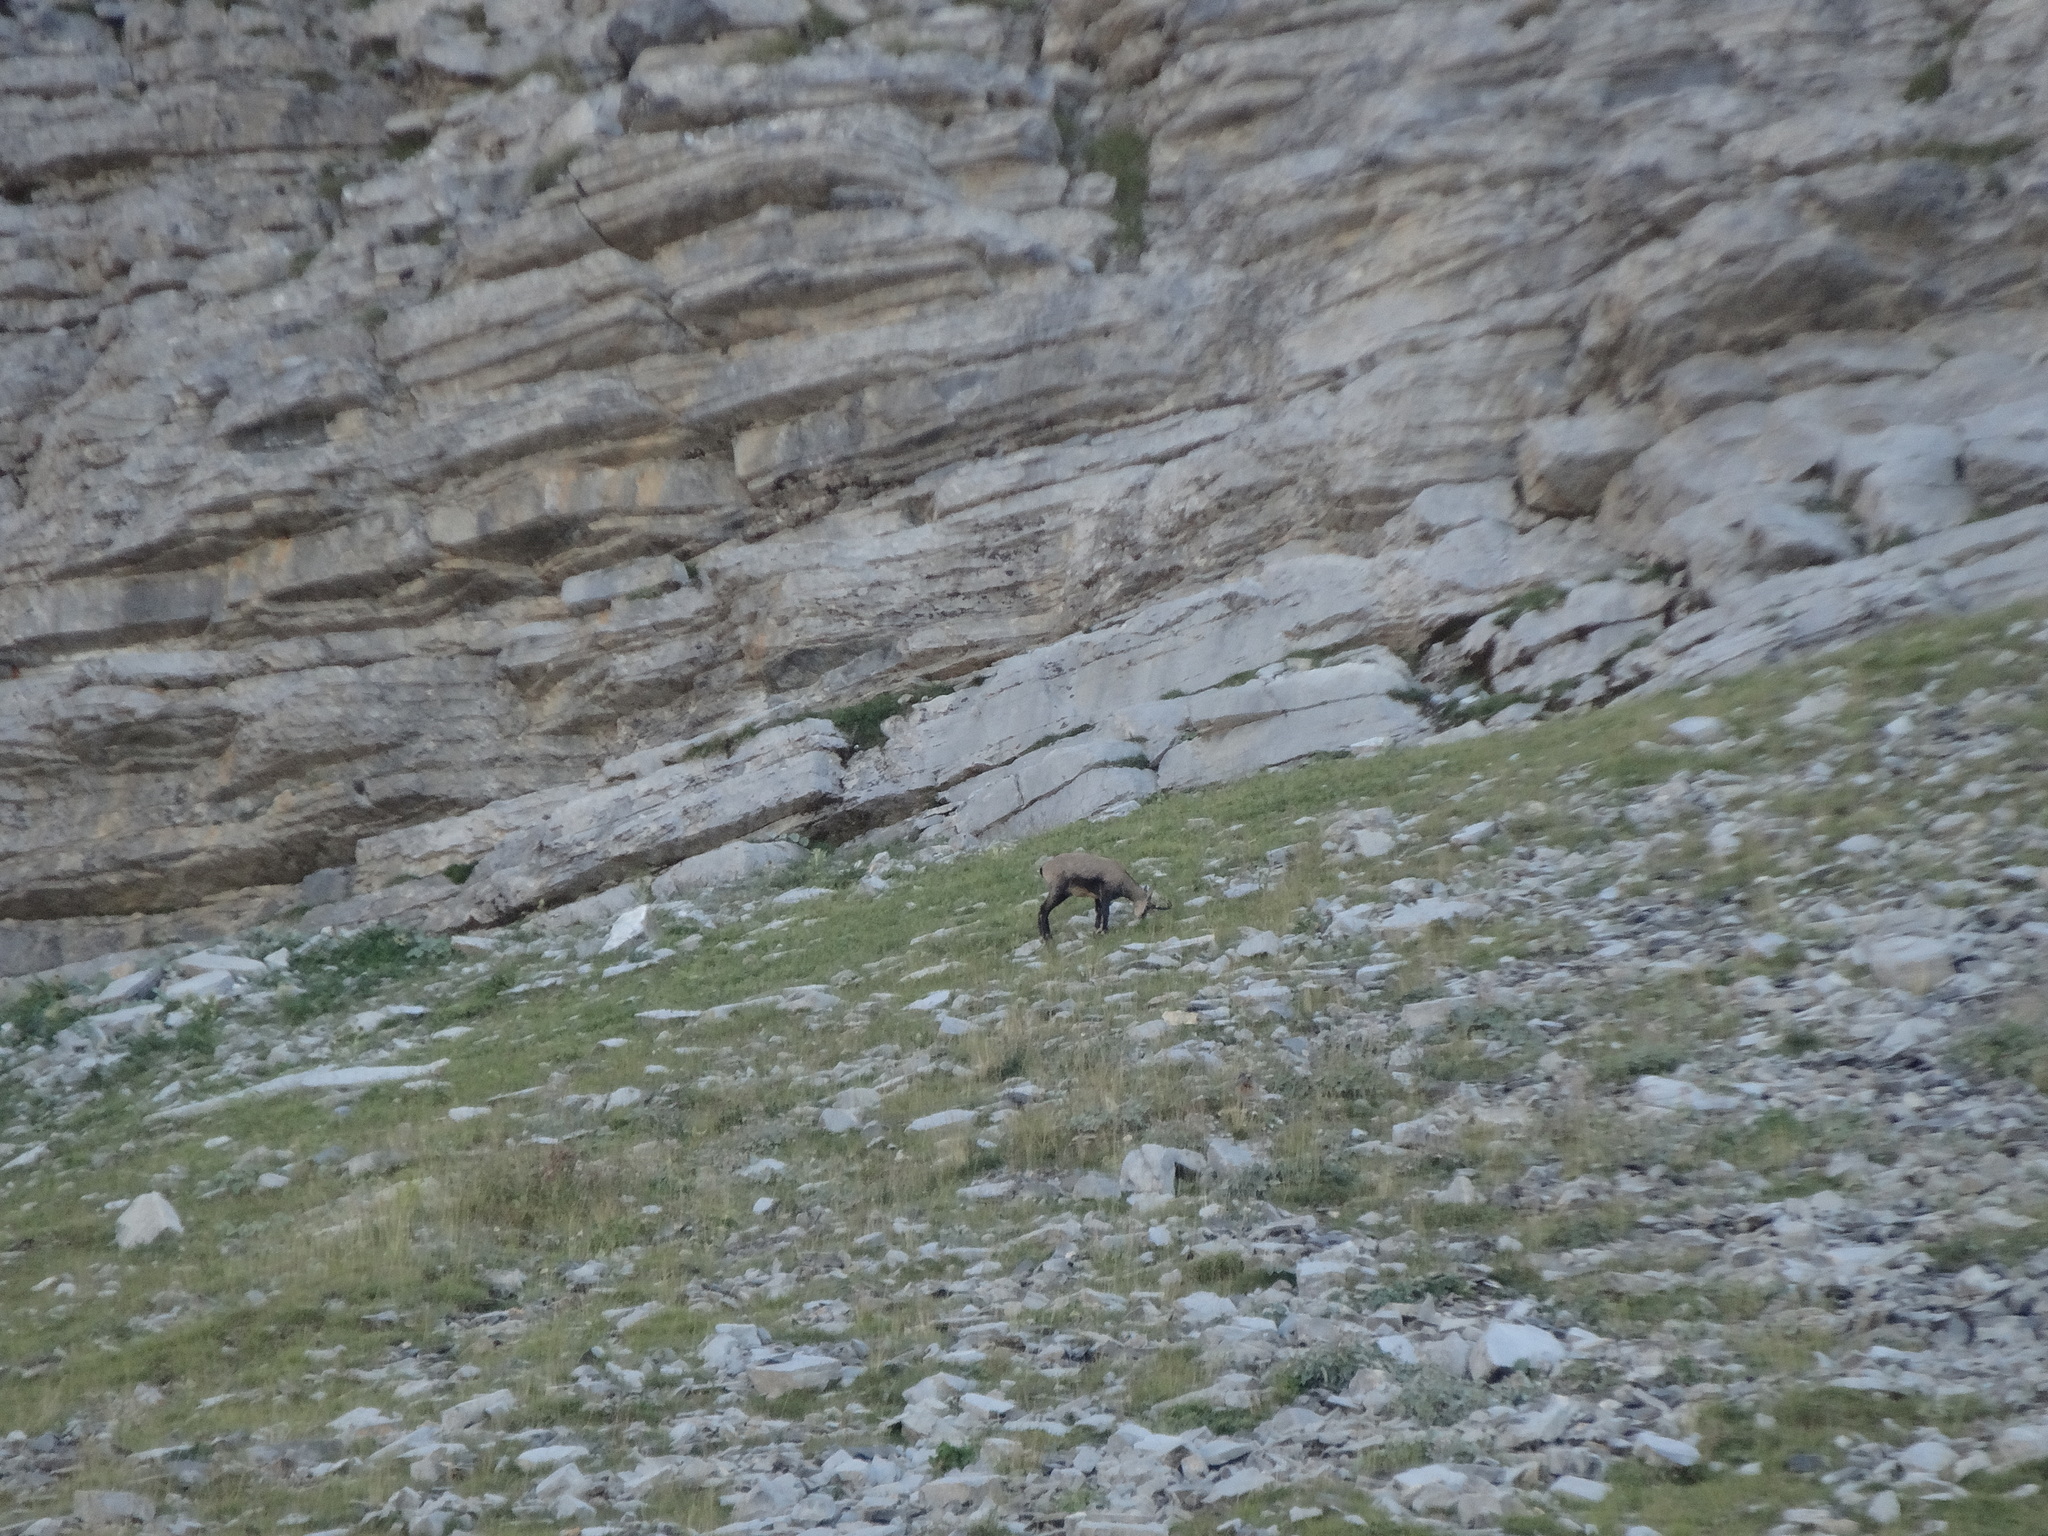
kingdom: Animalia
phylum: Chordata
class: Mammalia
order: Artiodactyla
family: Bovidae
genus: Rupicapra
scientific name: Rupicapra rupicapra
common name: Chamois
